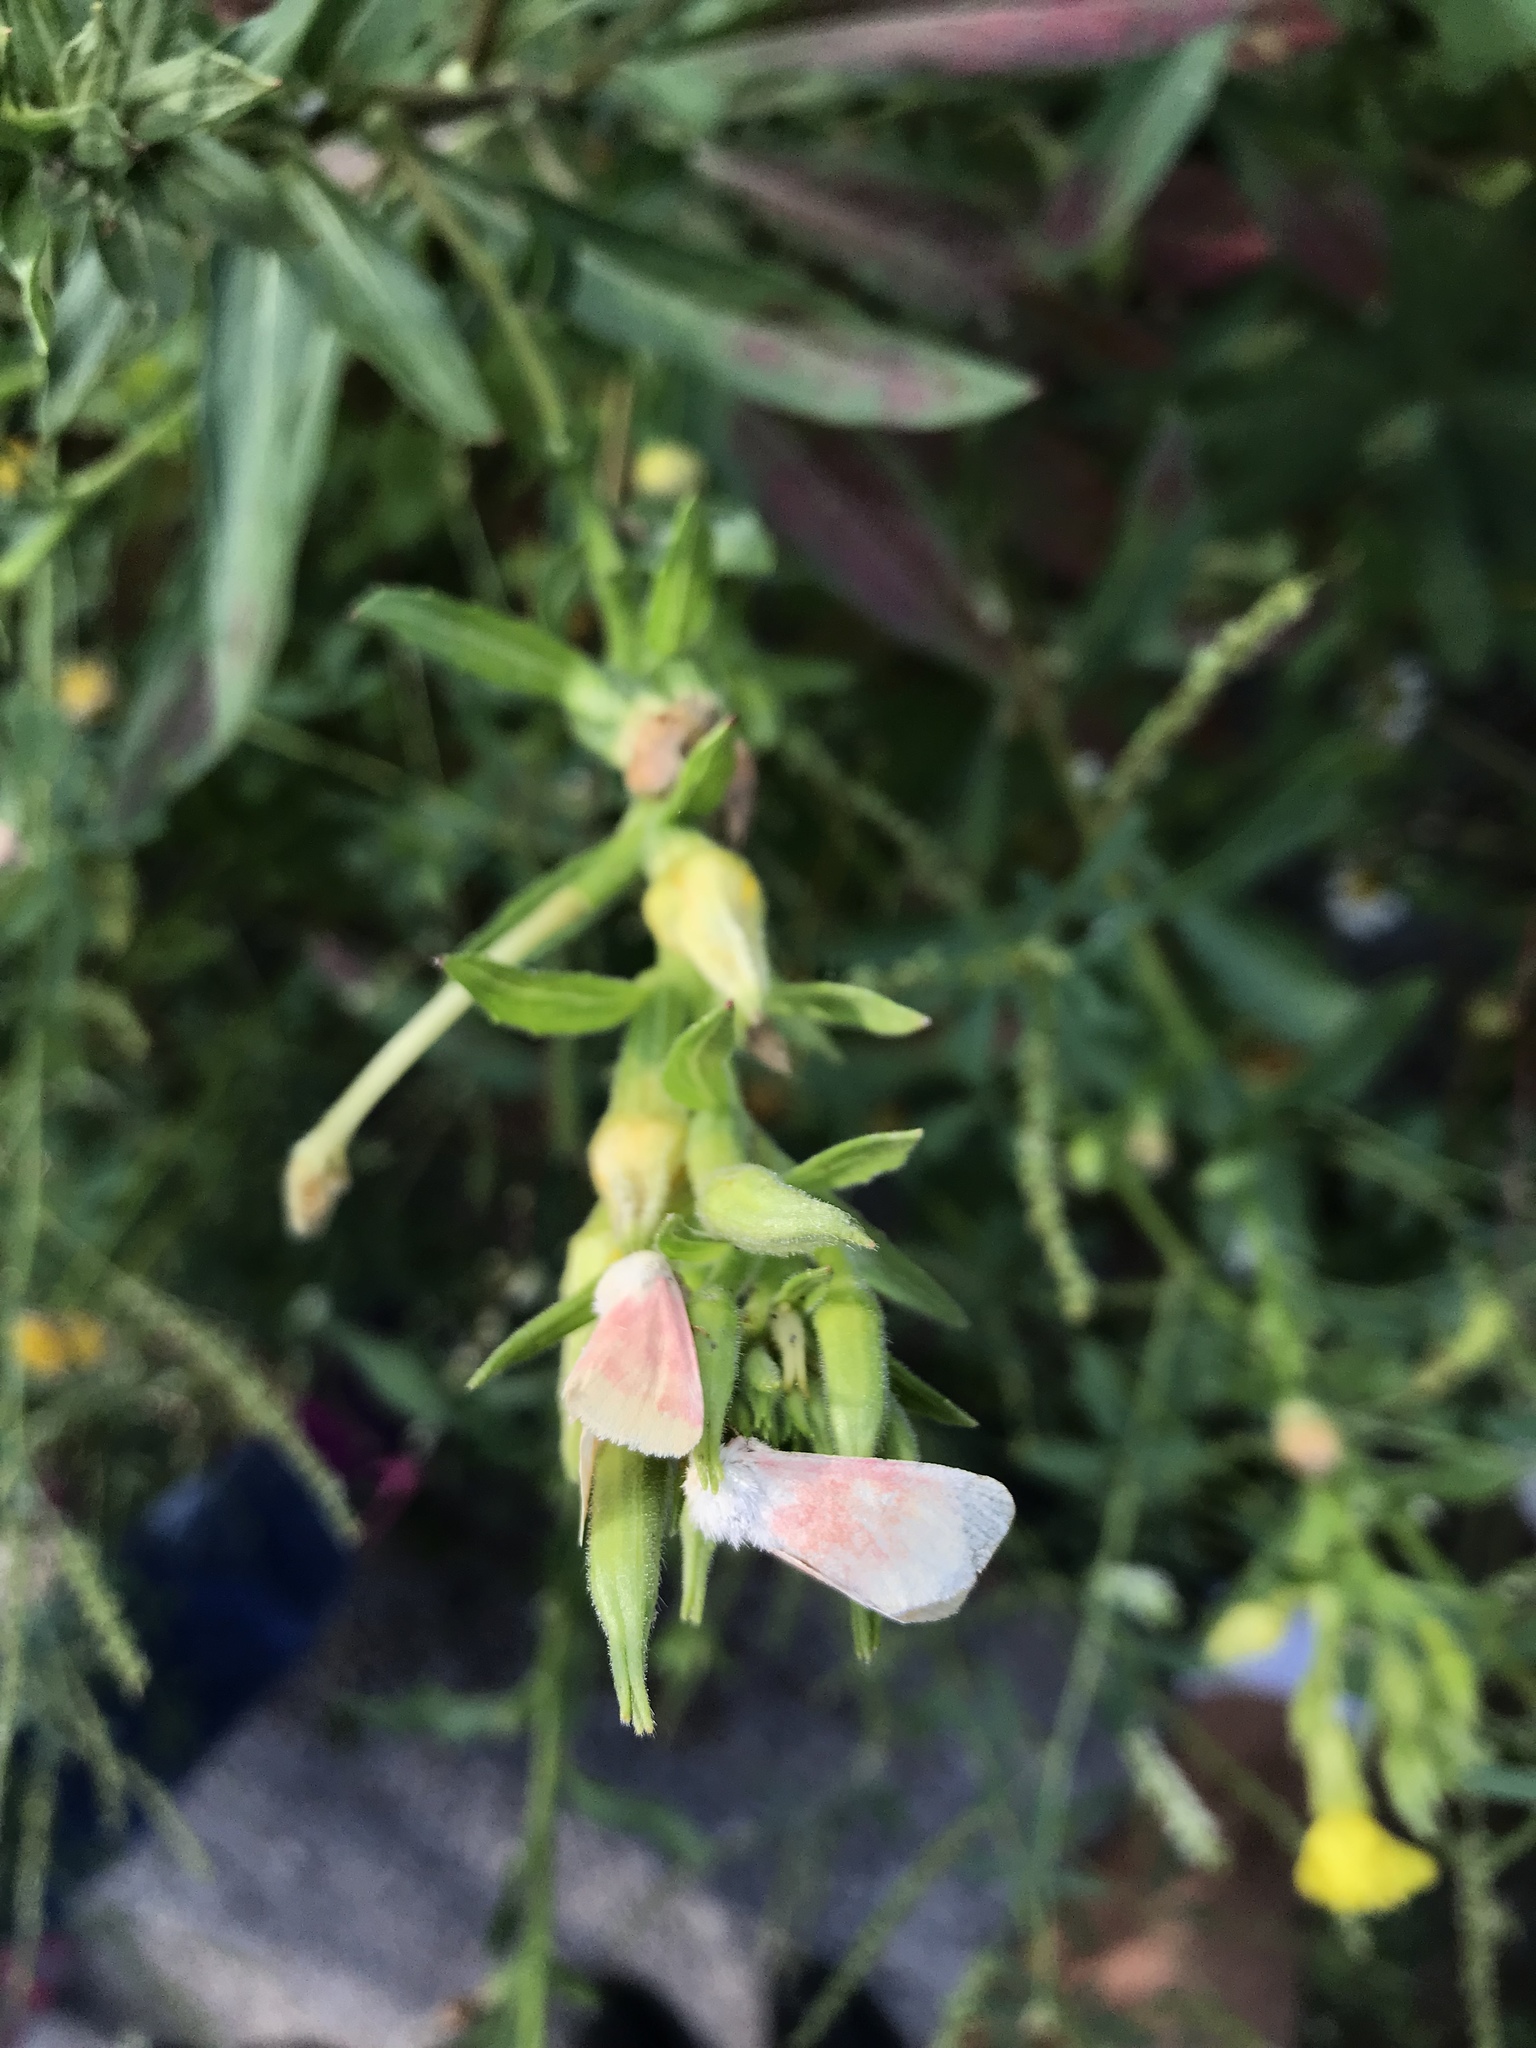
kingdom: Animalia
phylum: Arthropoda
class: Insecta
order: Lepidoptera
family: Noctuidae
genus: Schinia
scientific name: Schinia florida
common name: Primrose moth
